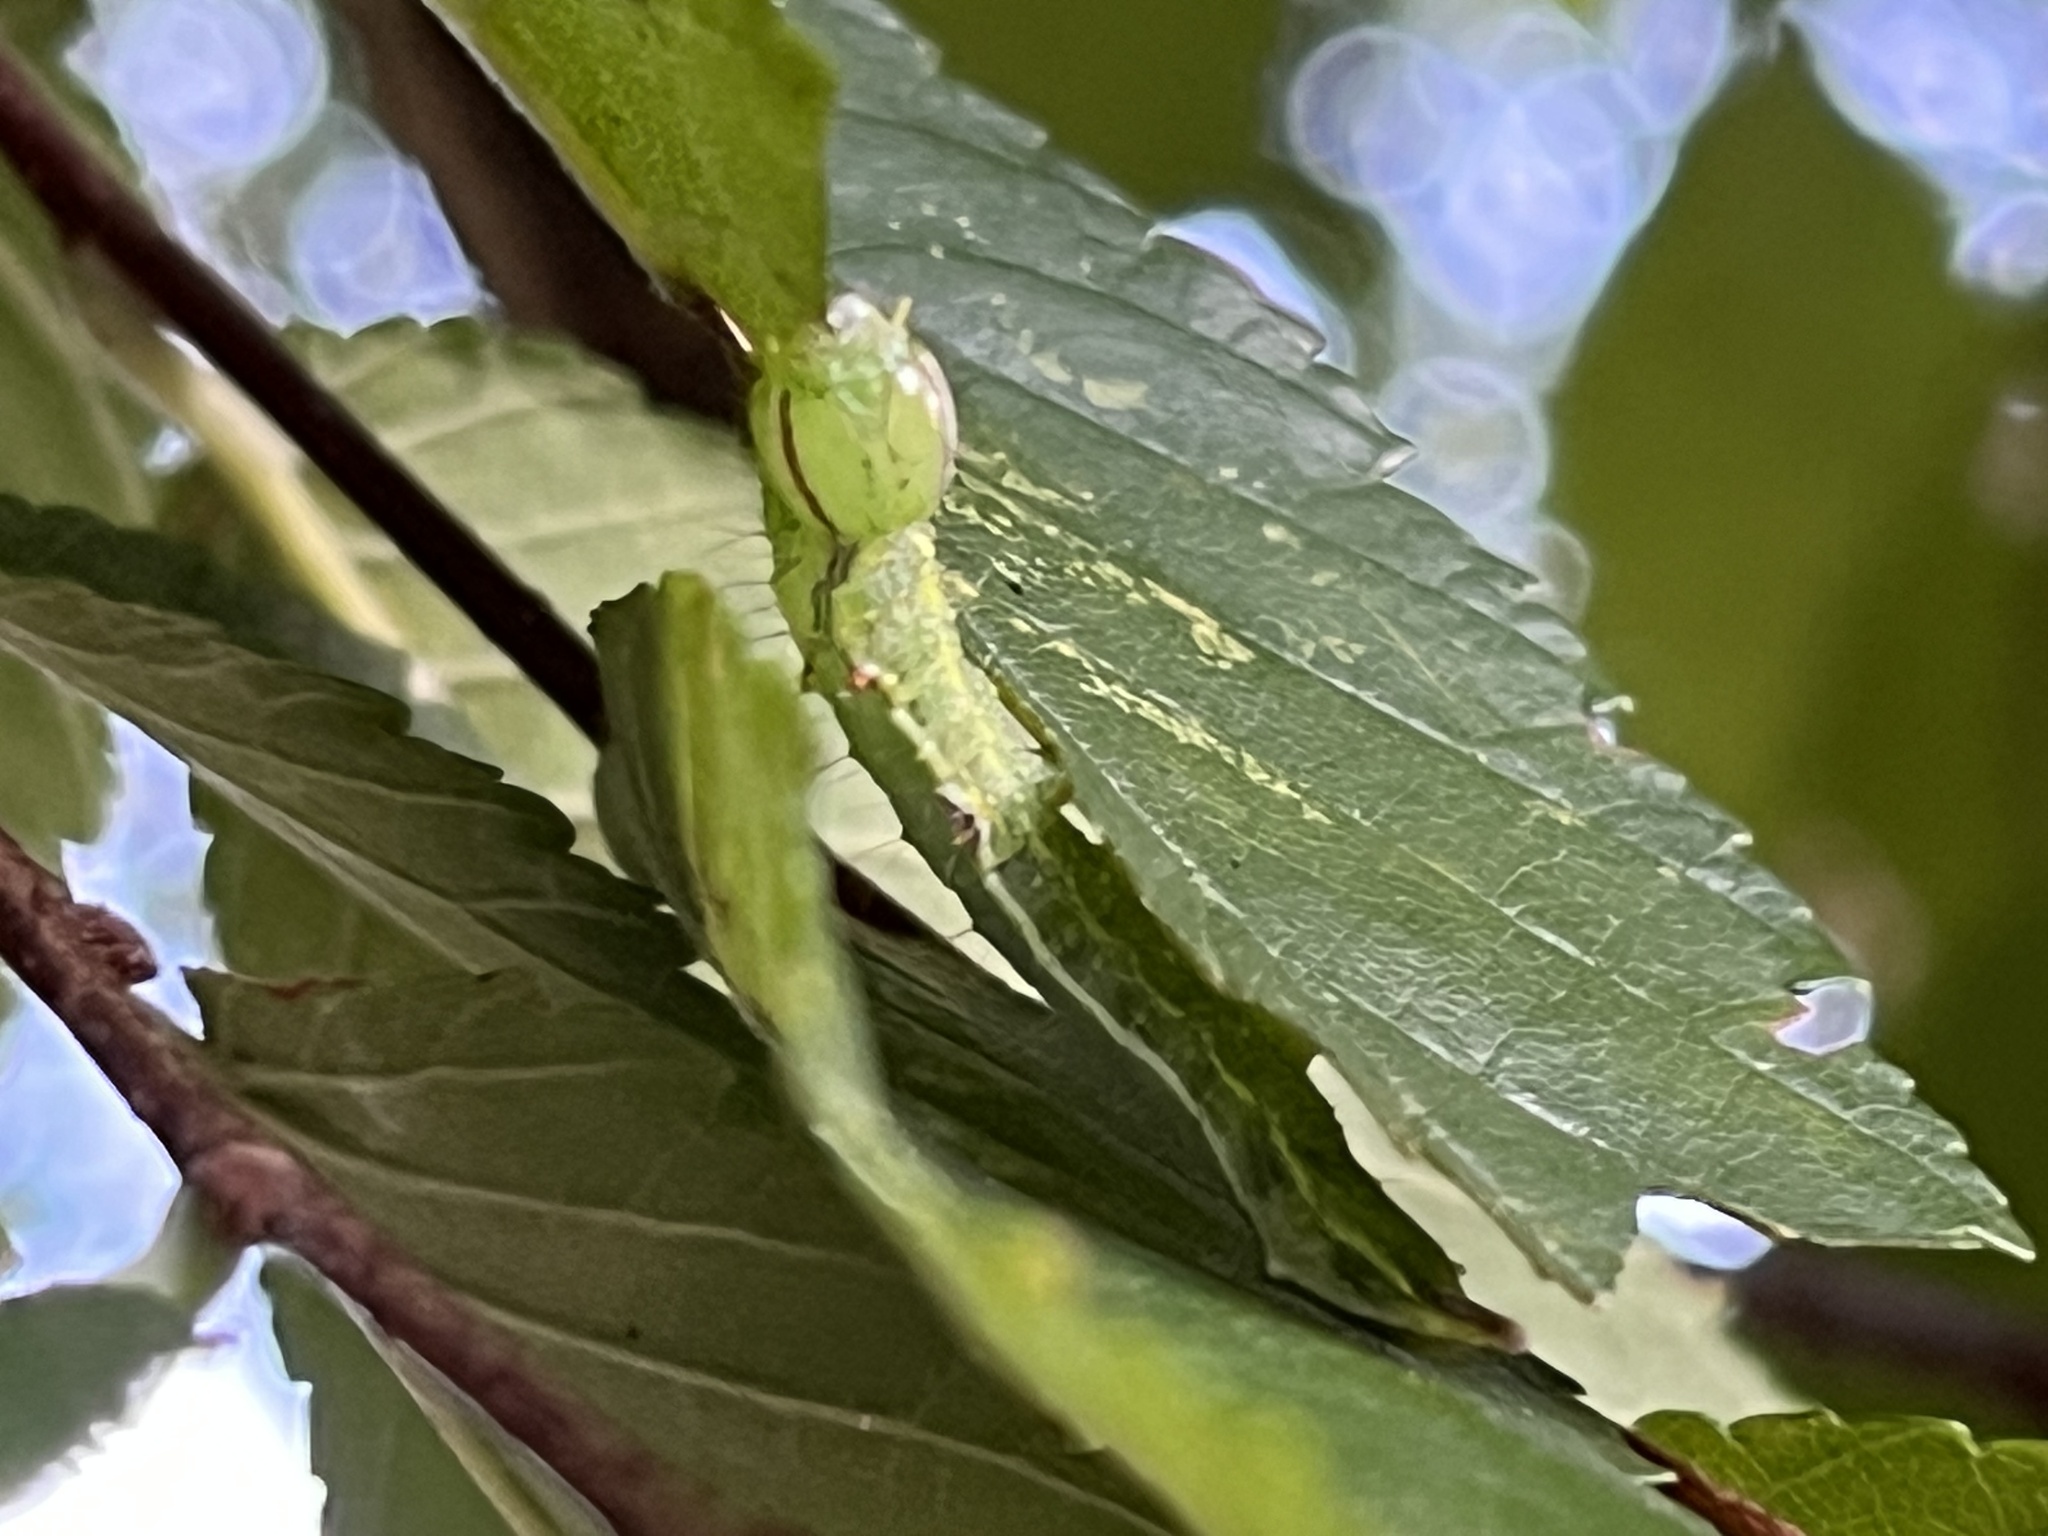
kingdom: Animalia
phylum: Arthropoda
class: Insecta
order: Lepidoptera
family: Notodontidae
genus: Lochmaeus
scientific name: Lochmaeus bilineata
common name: Double-lined prominent
